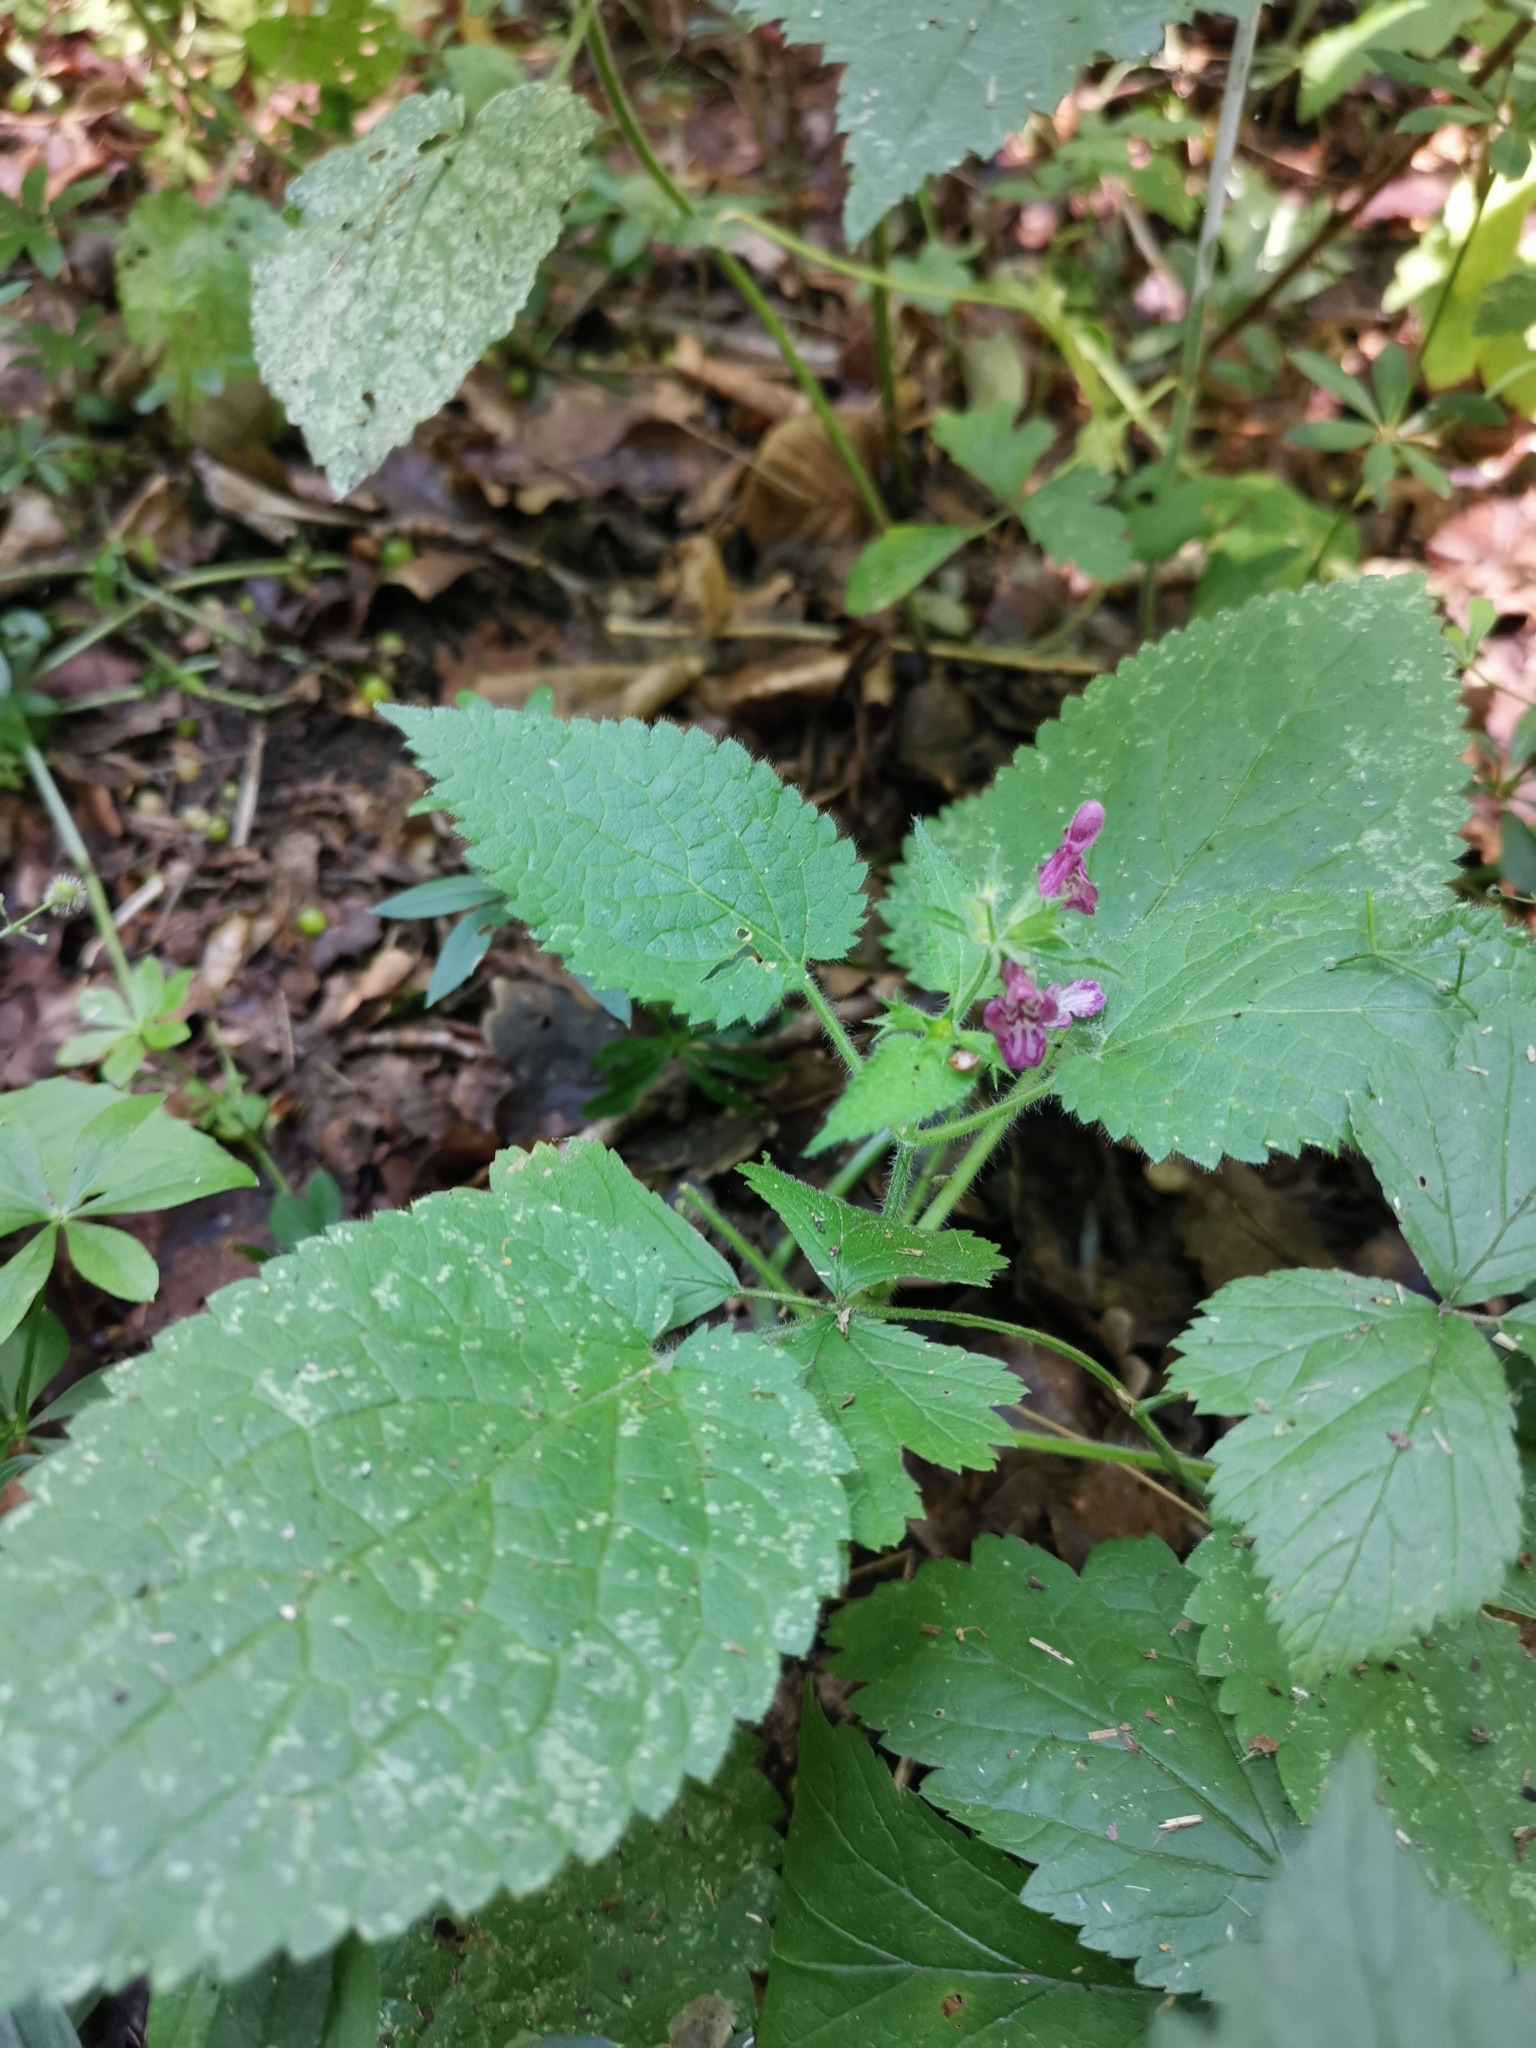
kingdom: Plantae
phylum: Tracheophyta
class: Magnoliopsida
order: Lamiales
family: Lamiaceae
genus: Stachys
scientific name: Stachys sylvatica
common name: Hedge woundwort
